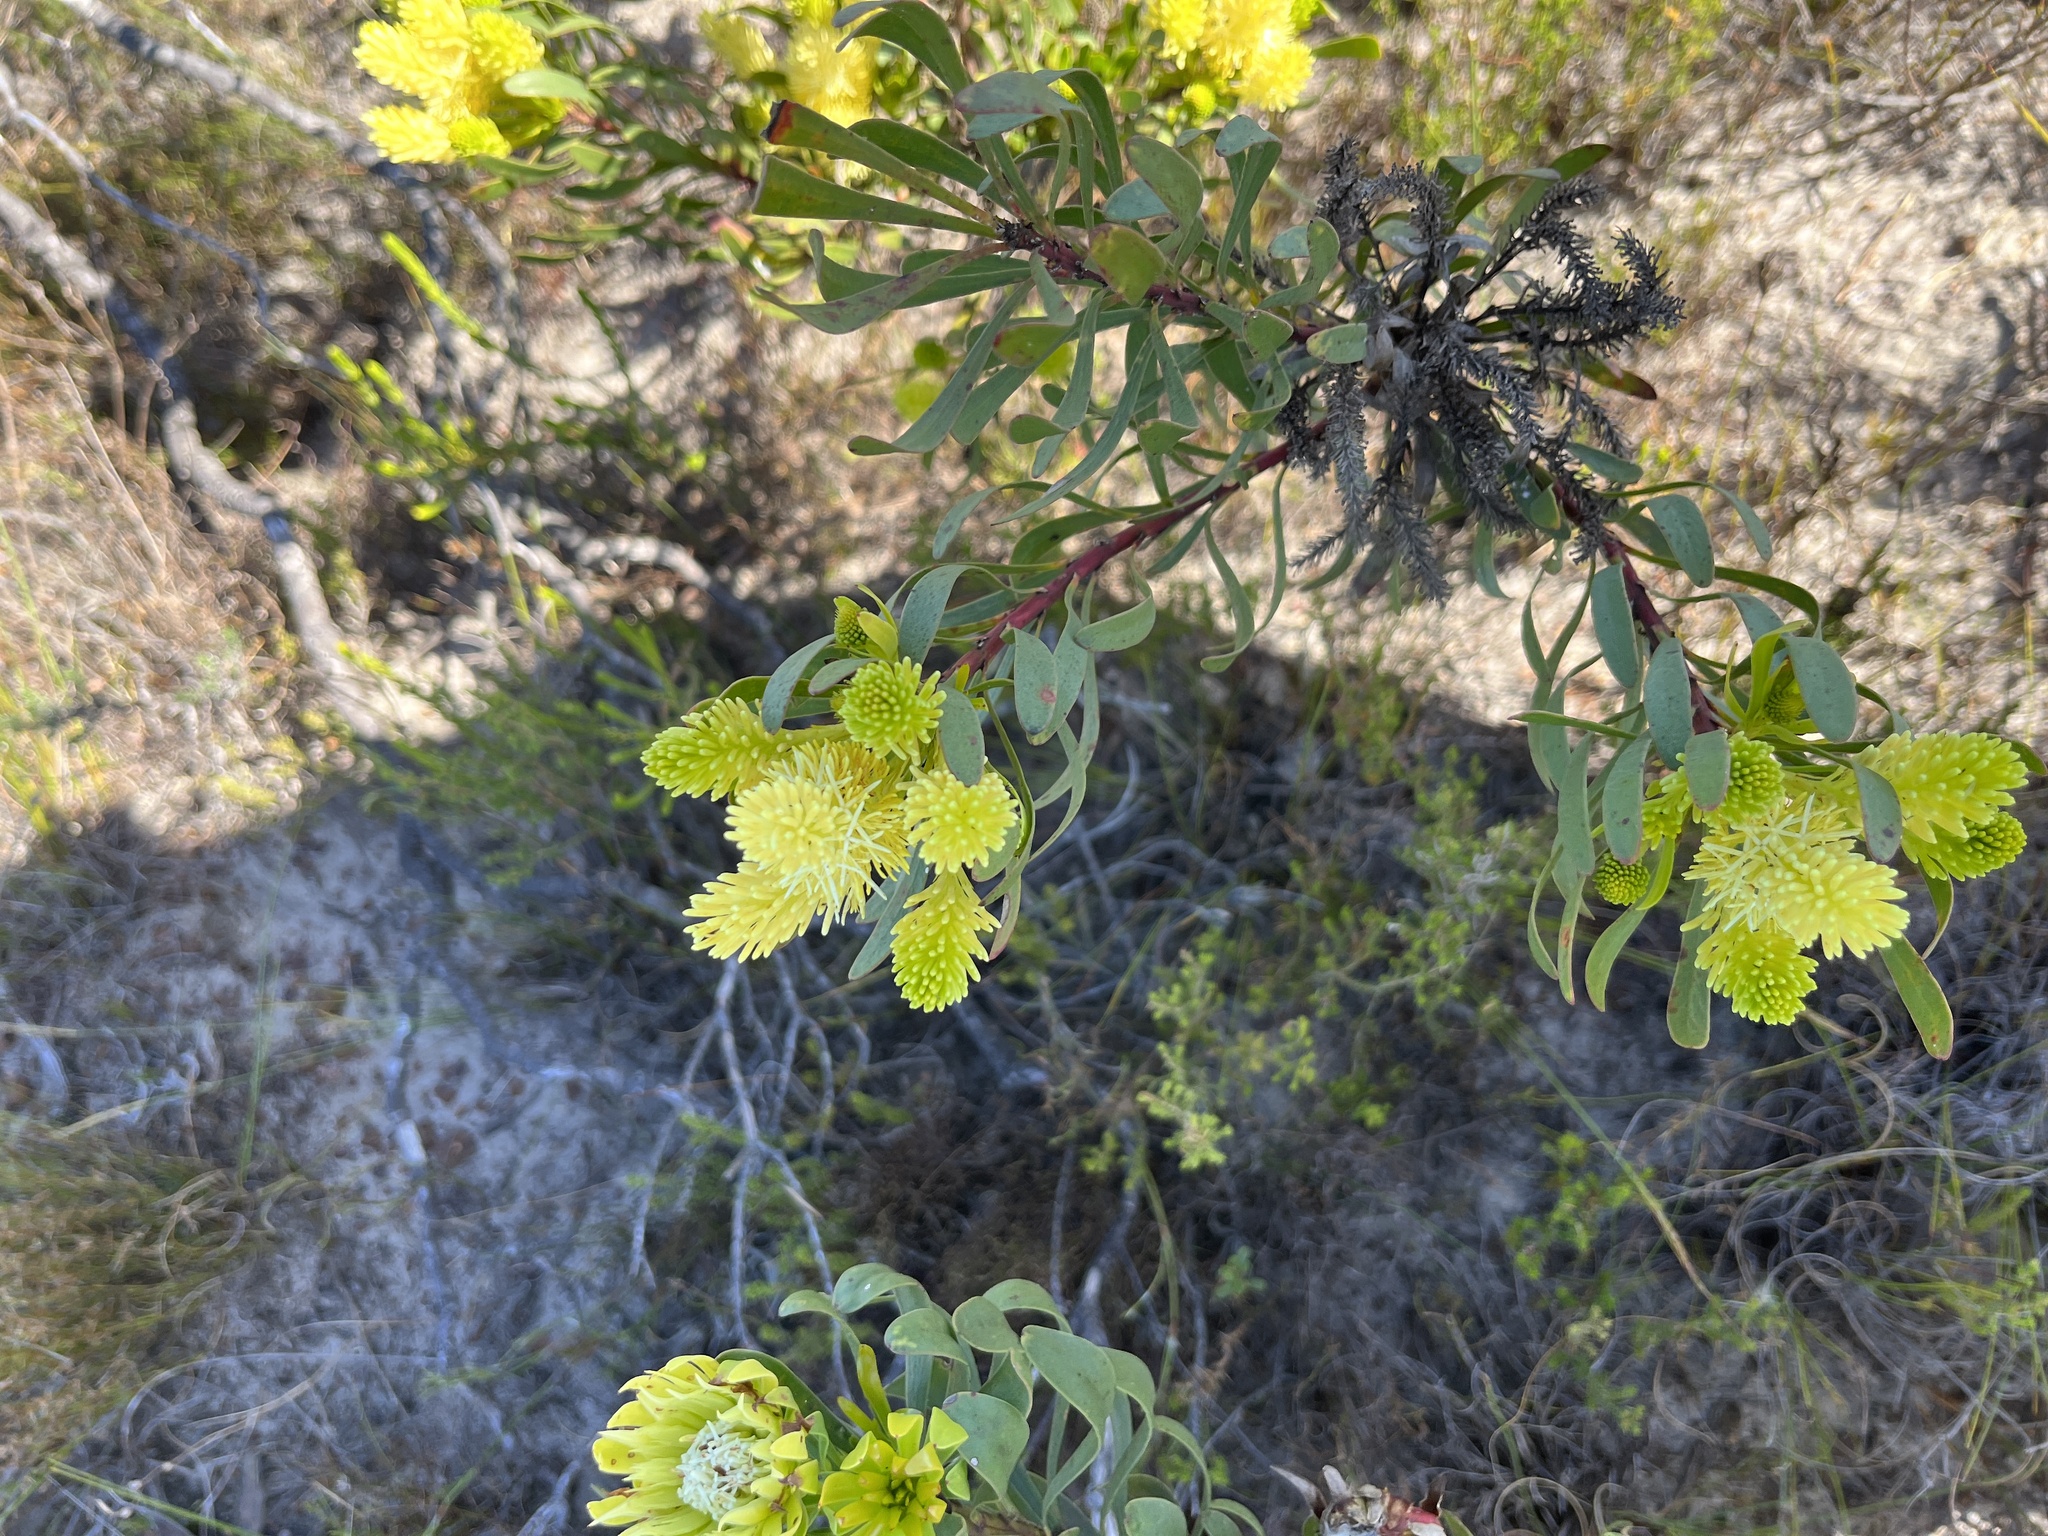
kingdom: Plantae
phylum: Tracheophyta
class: Magnoliopsida
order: Proteales
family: Proteaceae
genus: Aulax
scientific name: Aulax umbellata
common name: Broad-leaf featherbush
